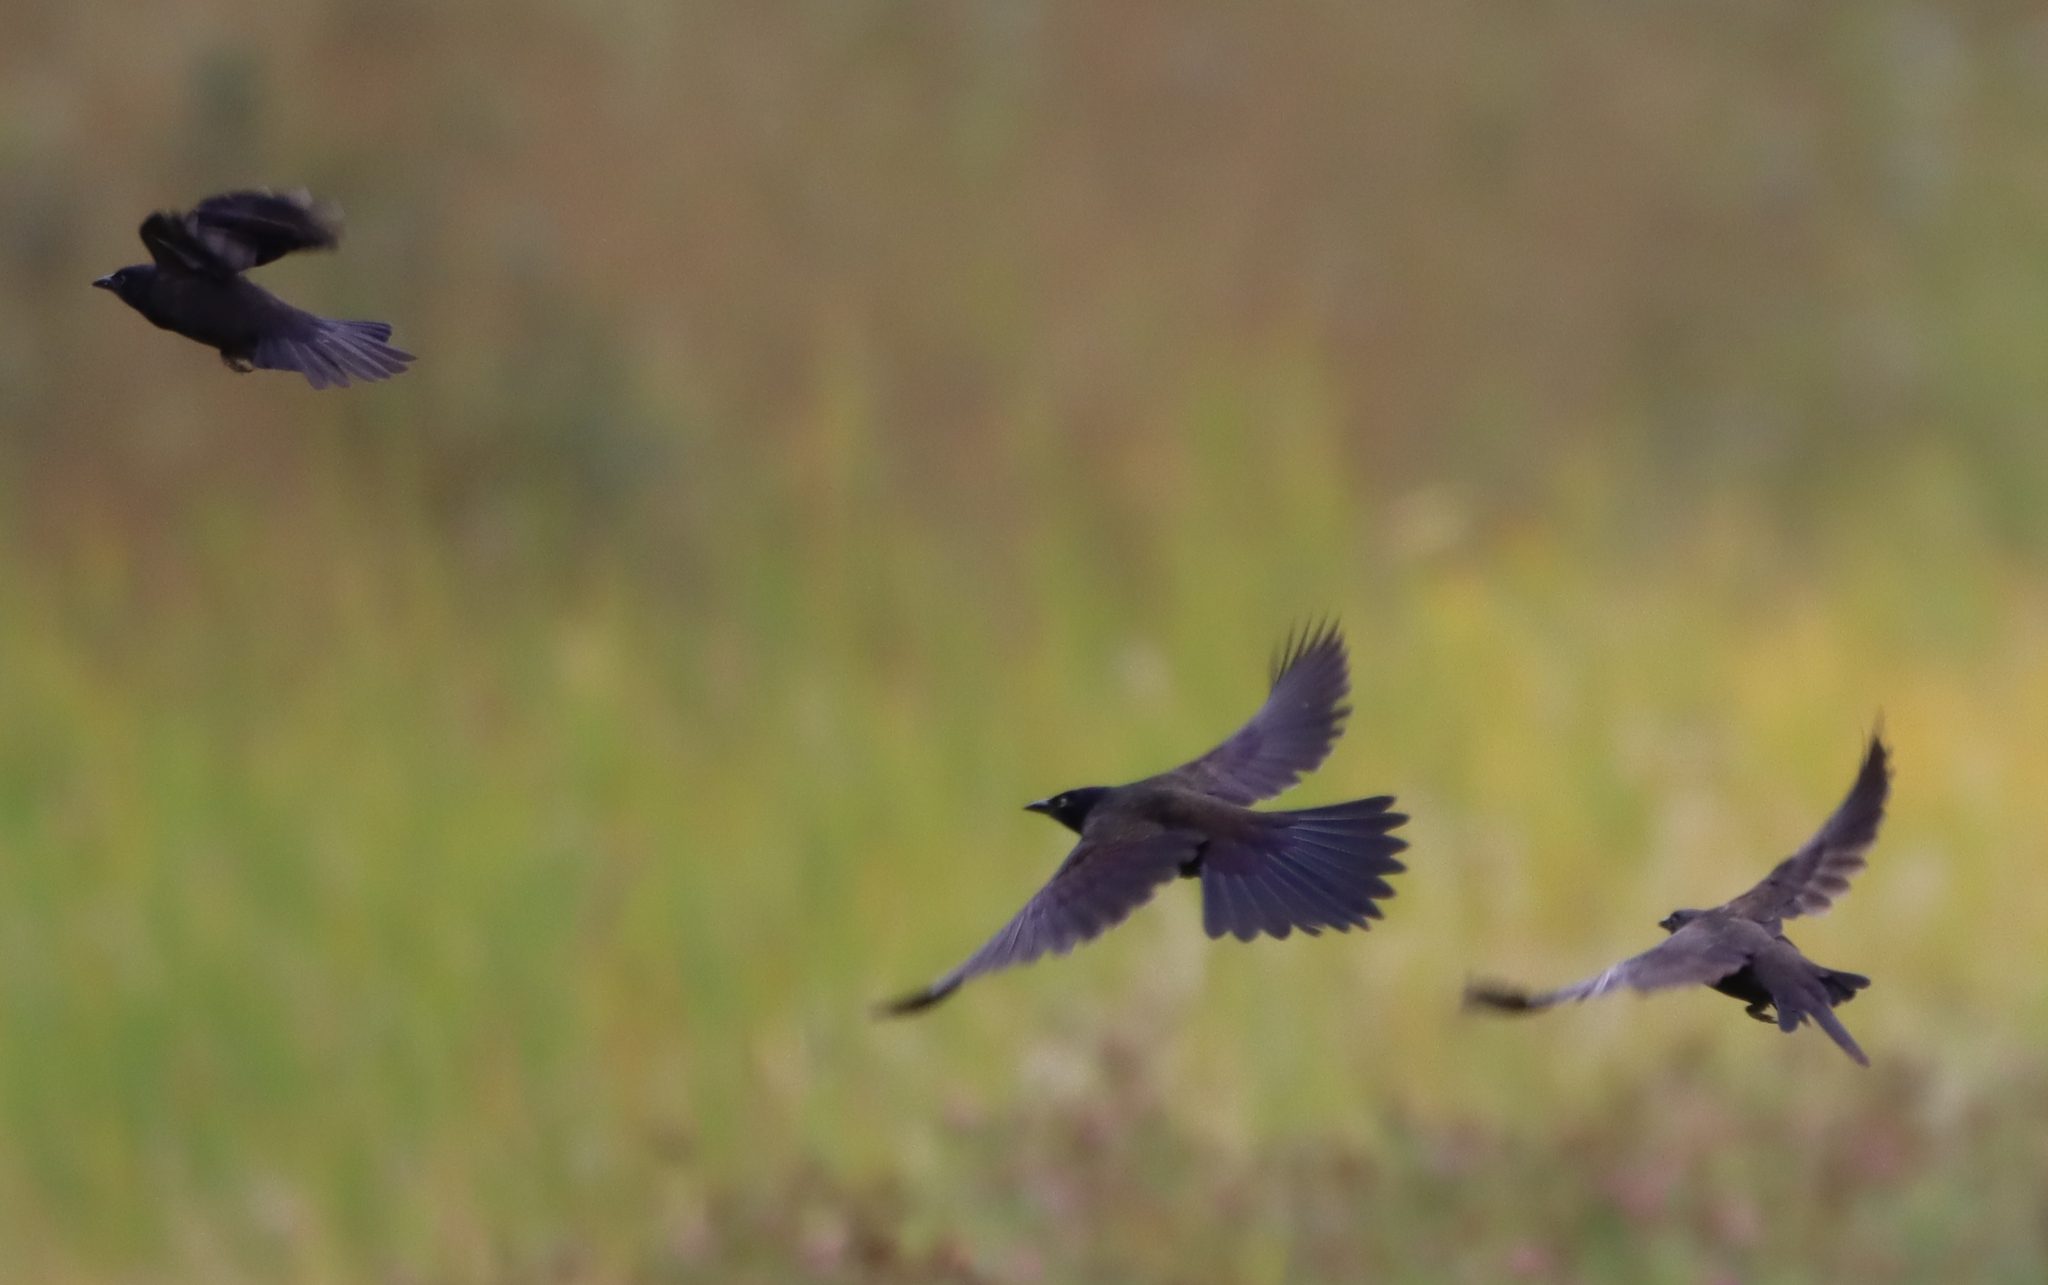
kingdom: Animalia
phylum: Chordata
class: Aves
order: Passeriformes
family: Icteridae
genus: Quiscalus
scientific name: Quiscalus quiscula
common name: Common grackle
